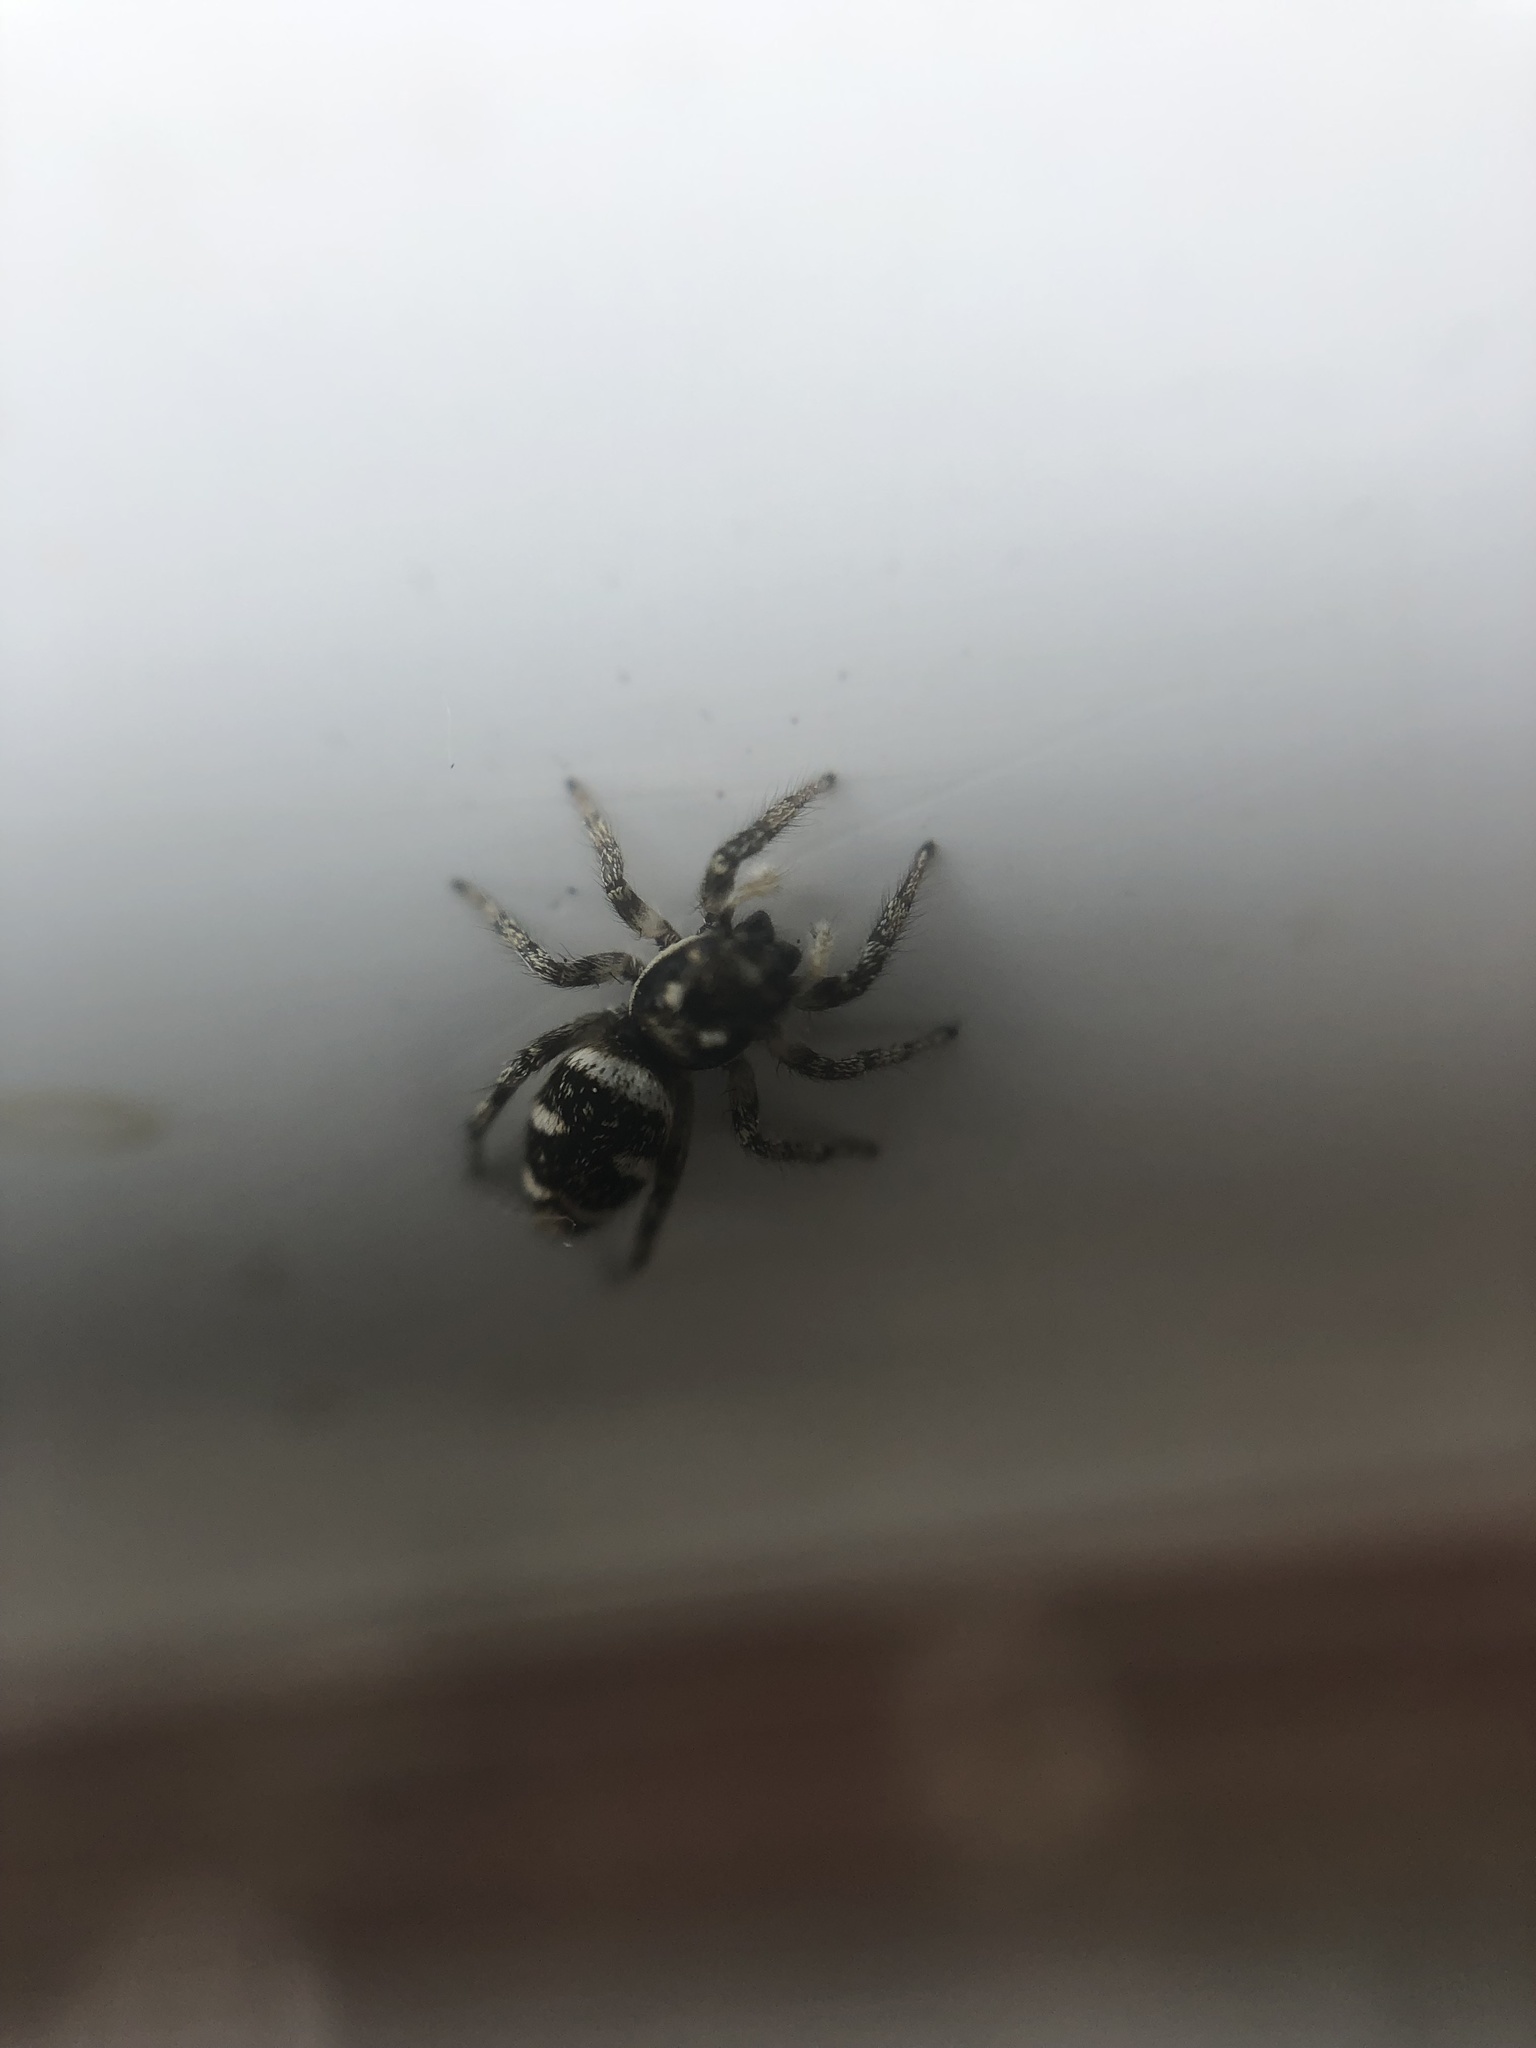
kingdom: Animalia
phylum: Arthropoda
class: Arachnida
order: Araneae
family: Salticidae
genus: Salticus
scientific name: Salticus scenicus
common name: Zebra jumper
